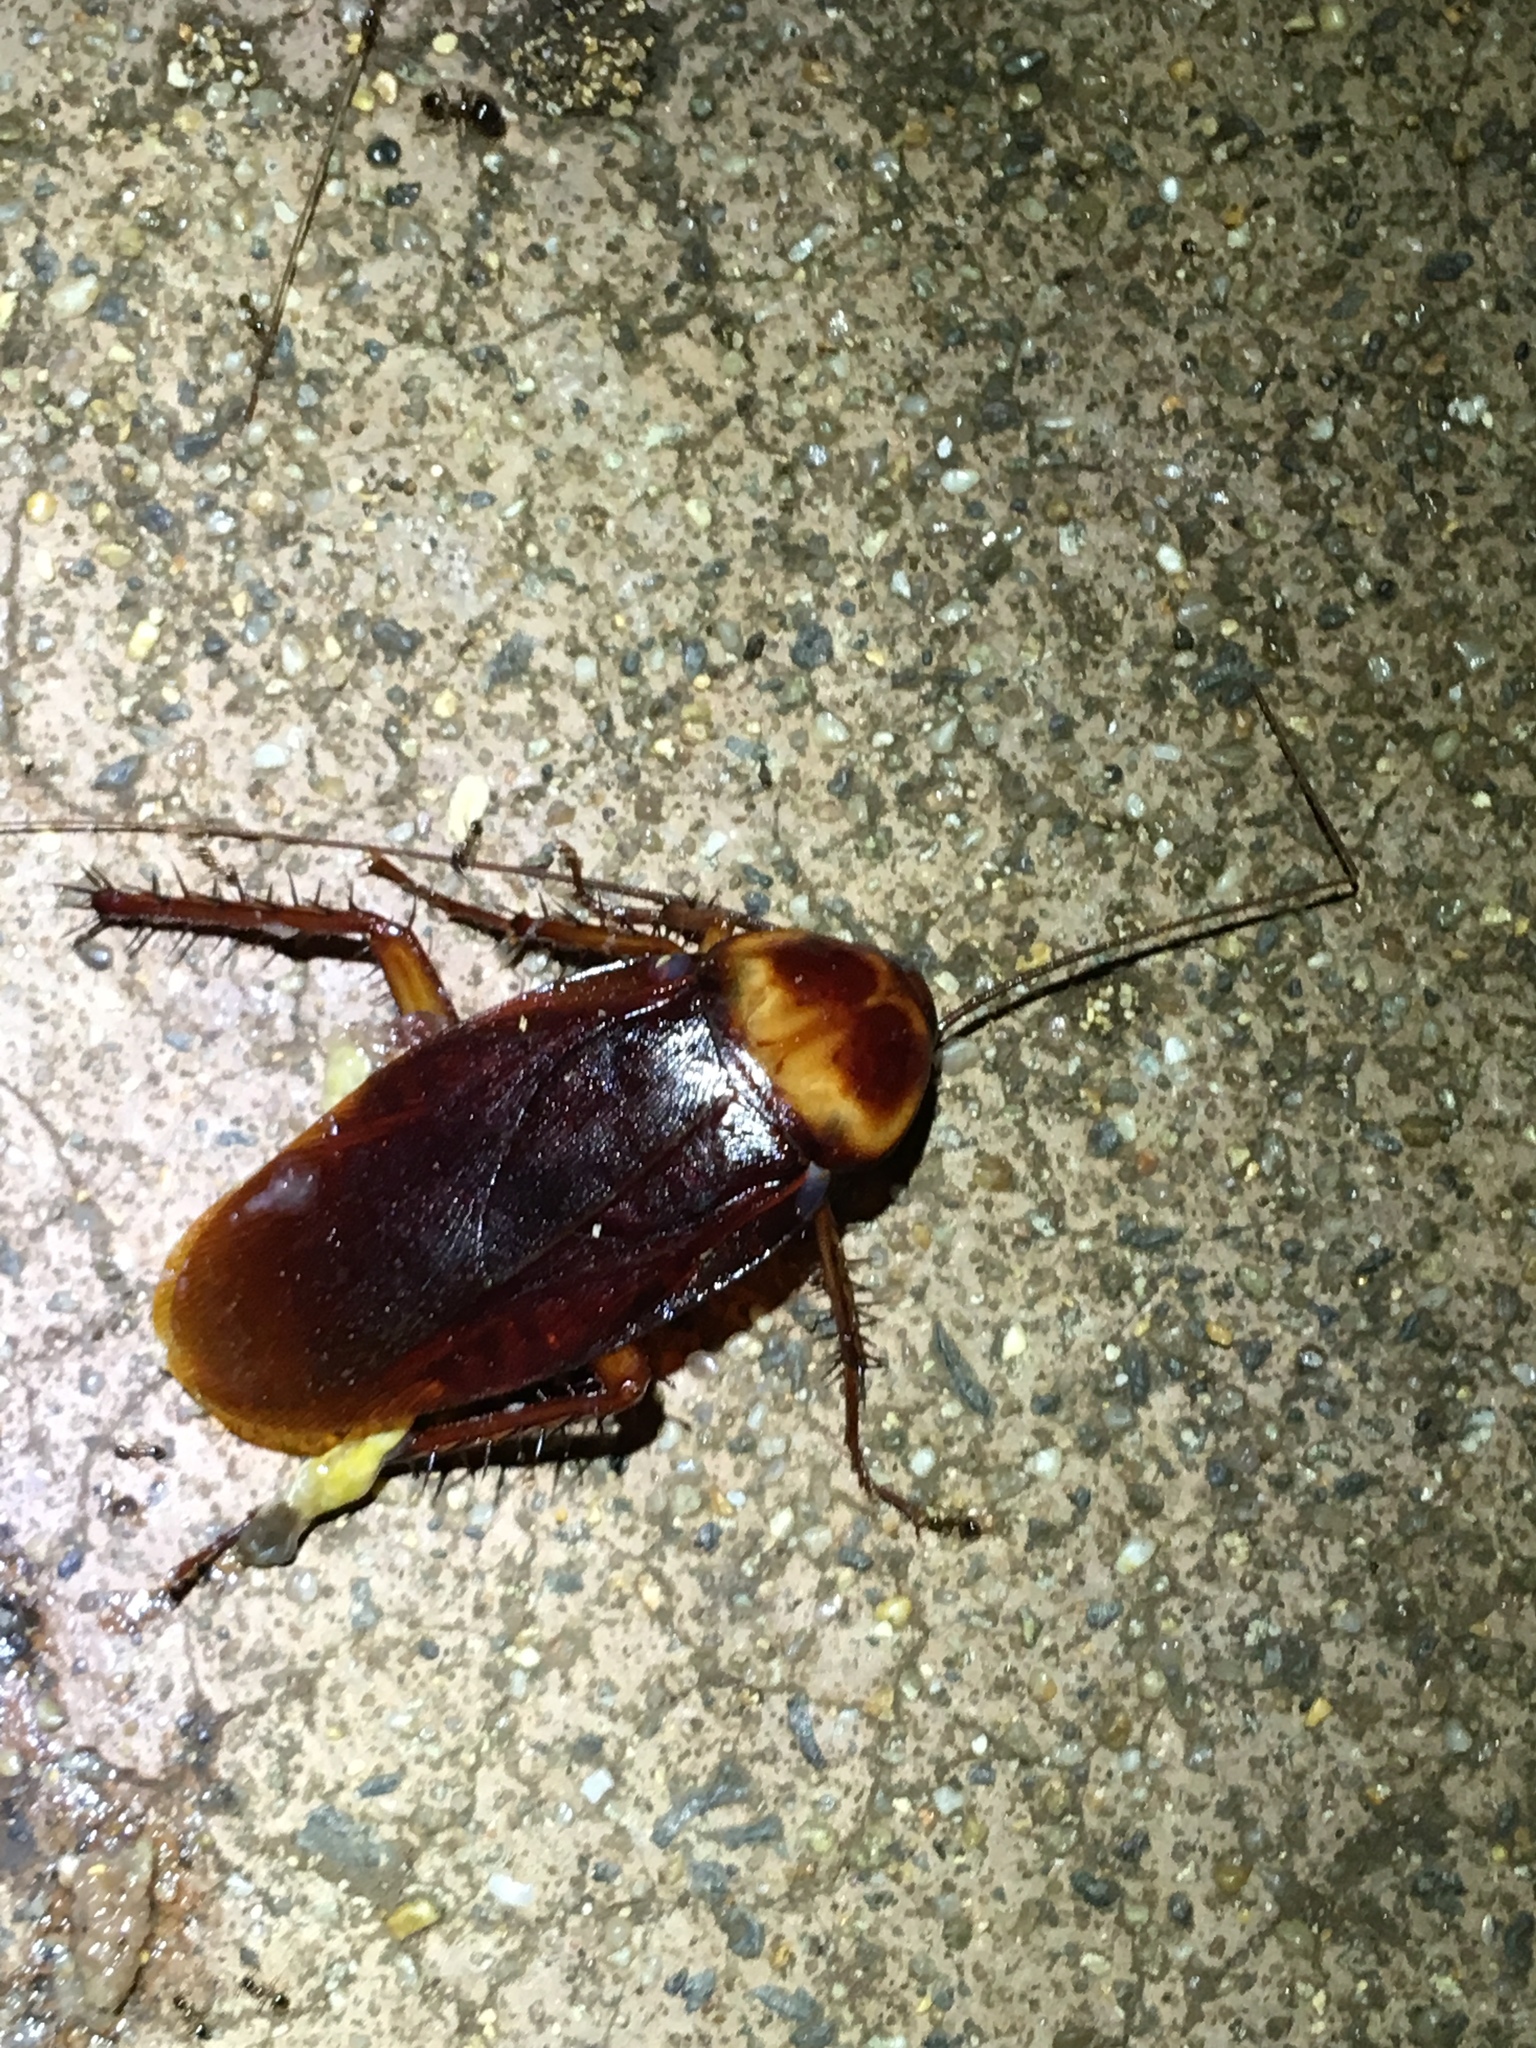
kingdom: Animalia
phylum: Arthropoda
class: Insecta
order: Blattodea
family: Blattidae
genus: Periplaneta
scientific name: Periplaneta americana
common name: American cockroach
